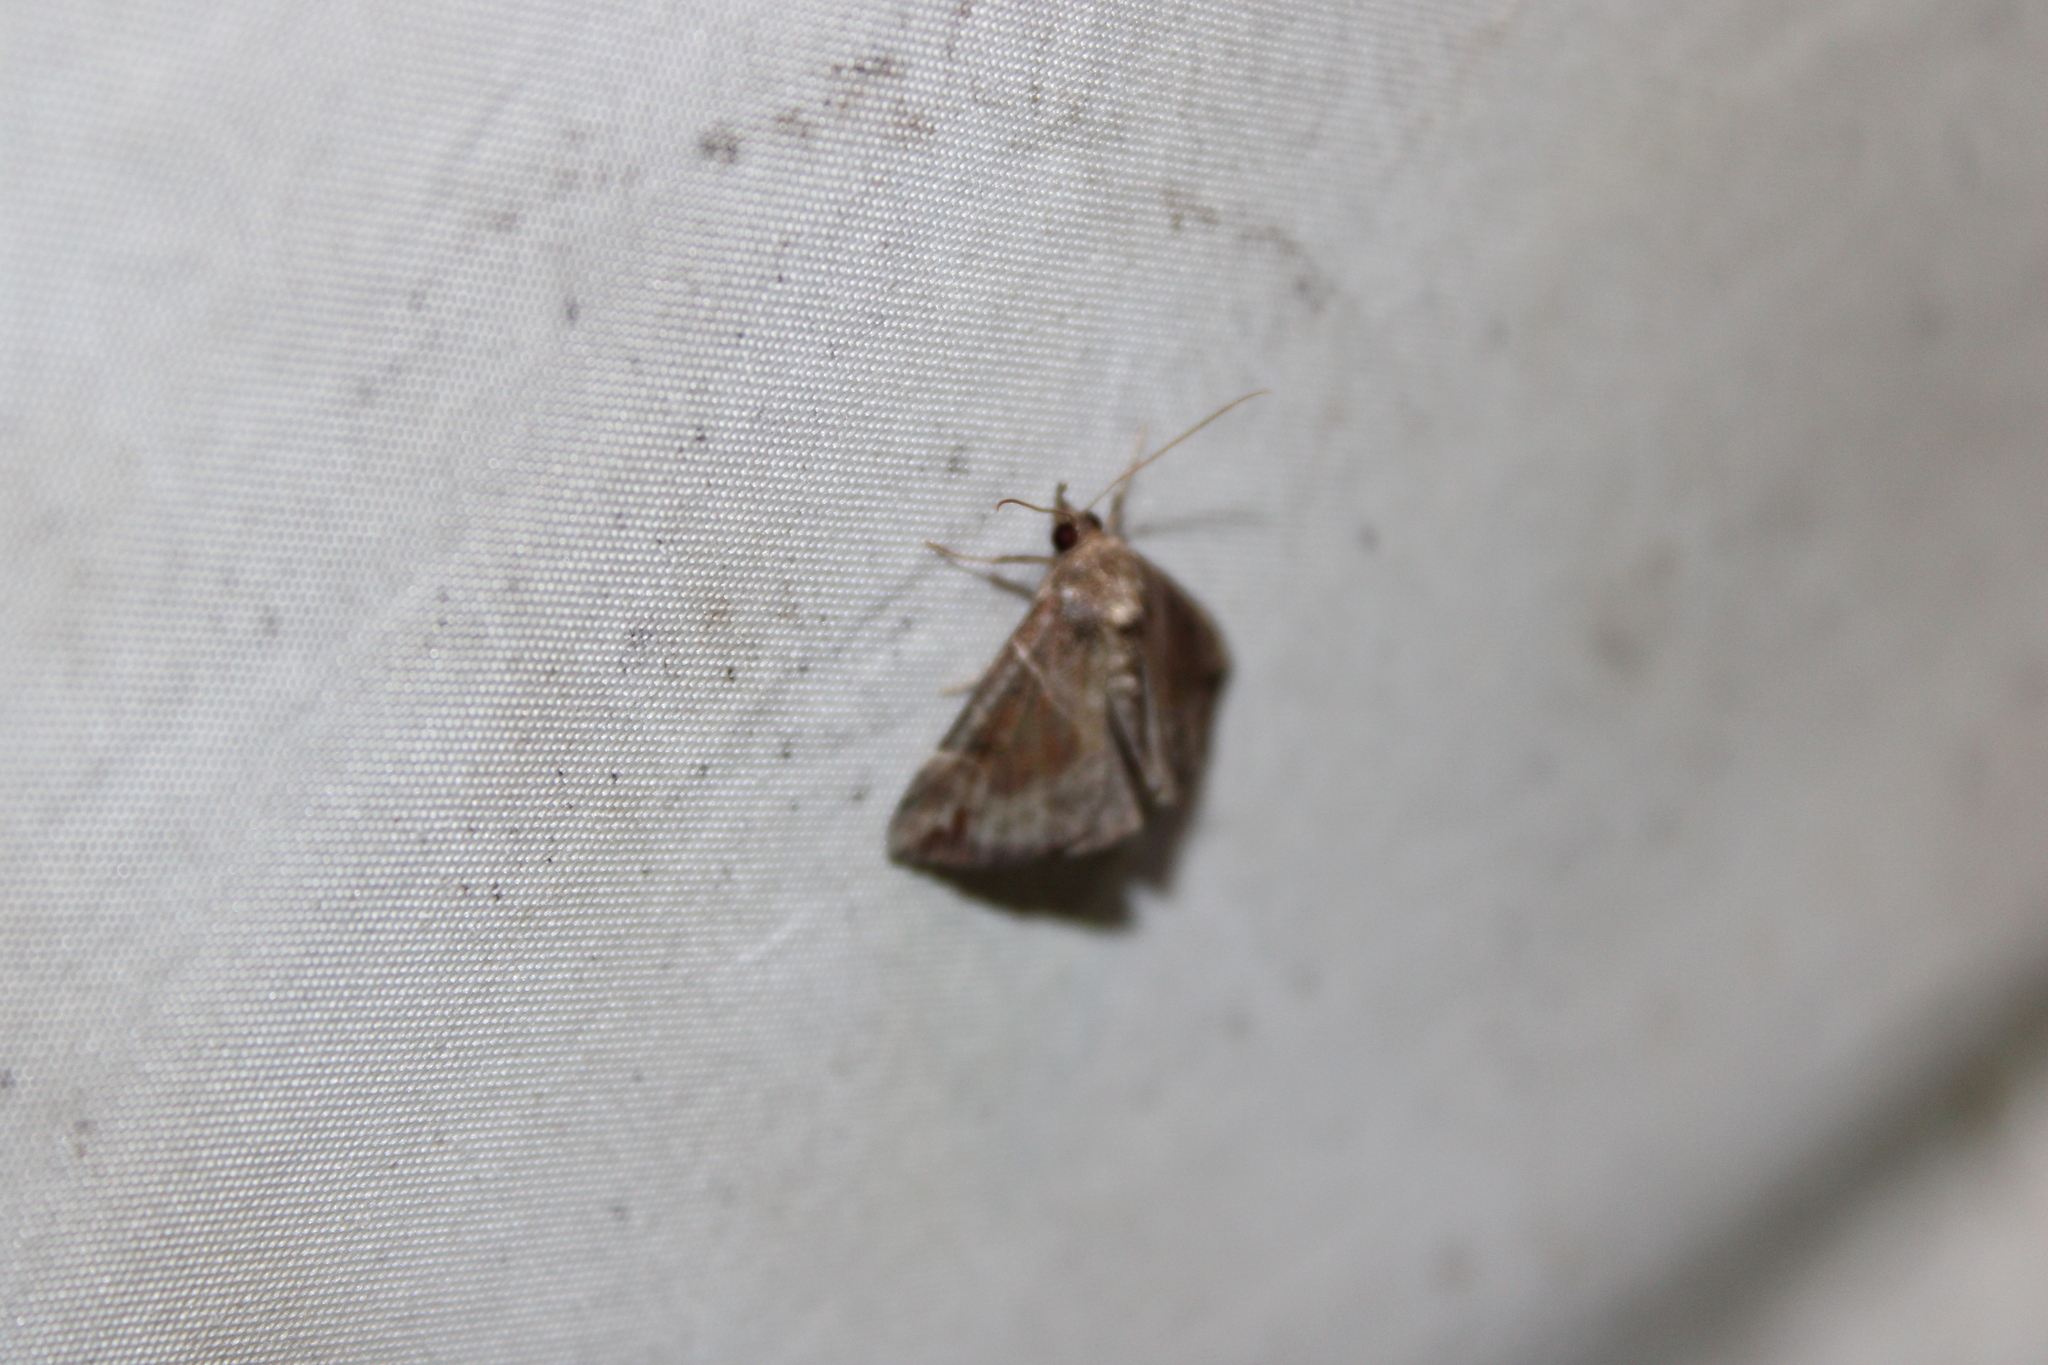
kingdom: Animalia
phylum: Arthropoda
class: Insecta
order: Lepidoptera
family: Erebidae
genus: Hypena
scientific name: Hypena manalis
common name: Flowing-line bomolocha moth
